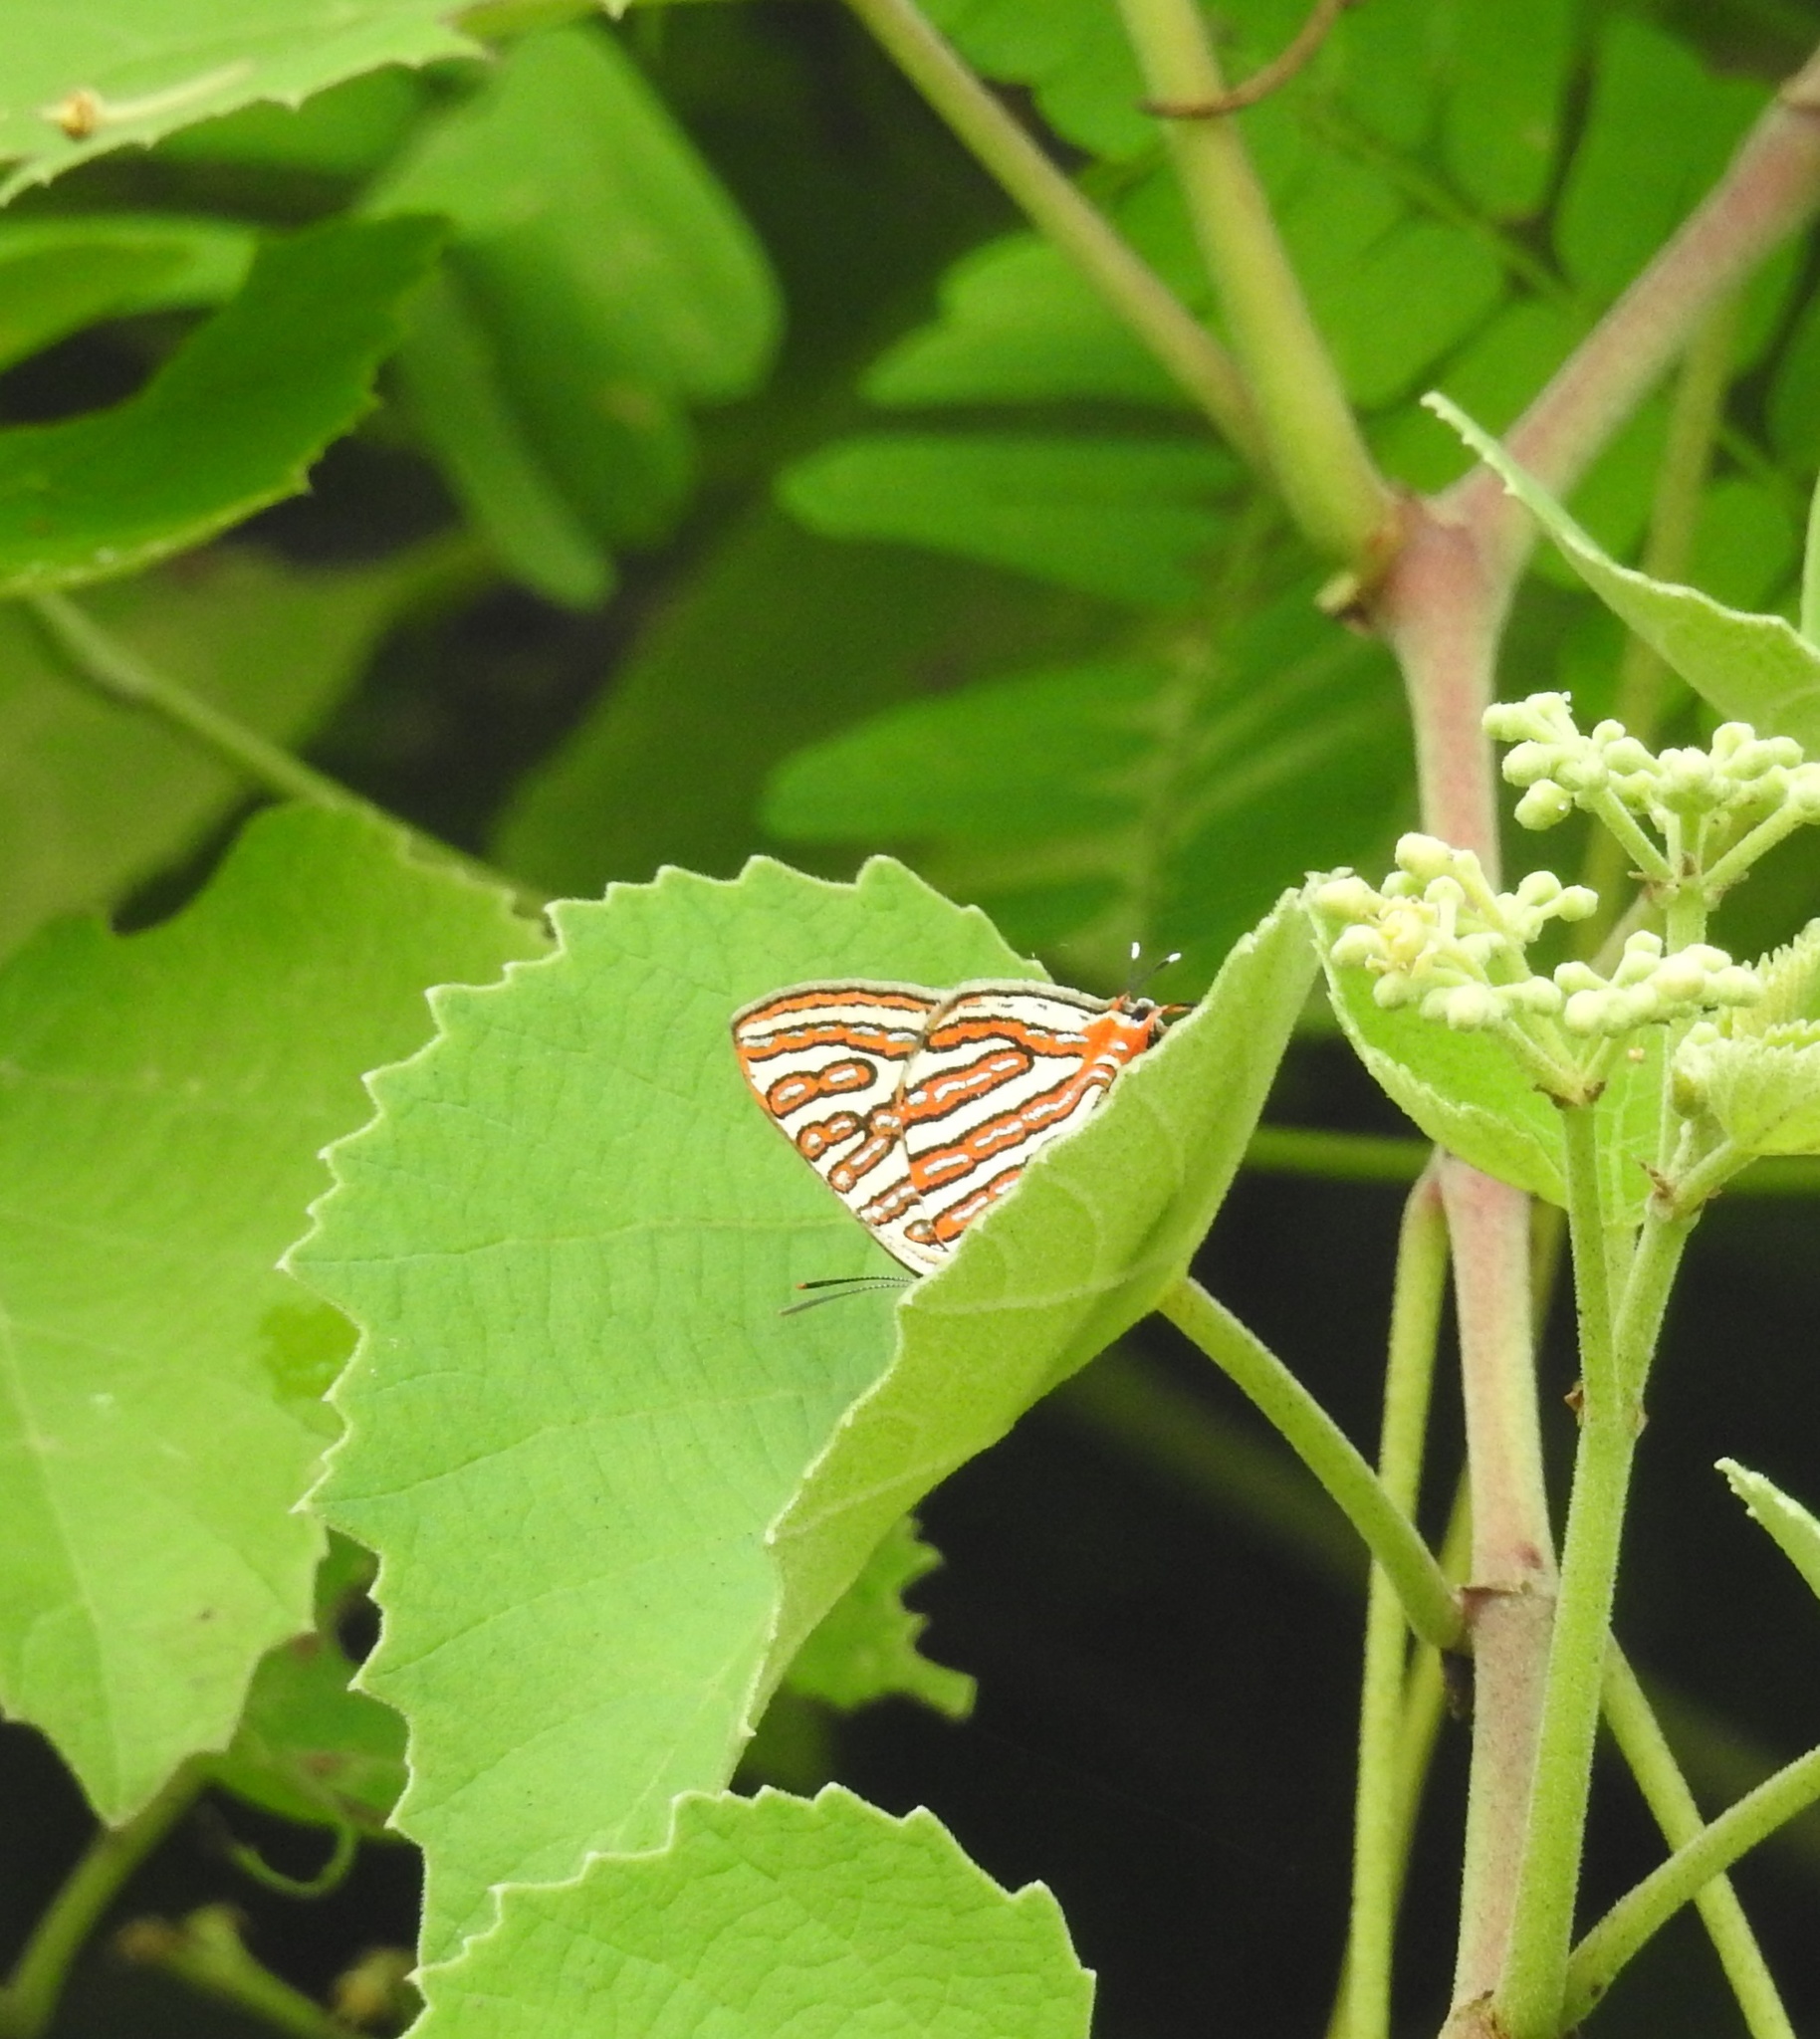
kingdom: Animalia
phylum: Arthropoda
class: Insecta
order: Lepidoptera
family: Lycaenidae
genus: Cigaritis
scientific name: Cigaritis vulcanus
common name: Common silverline
